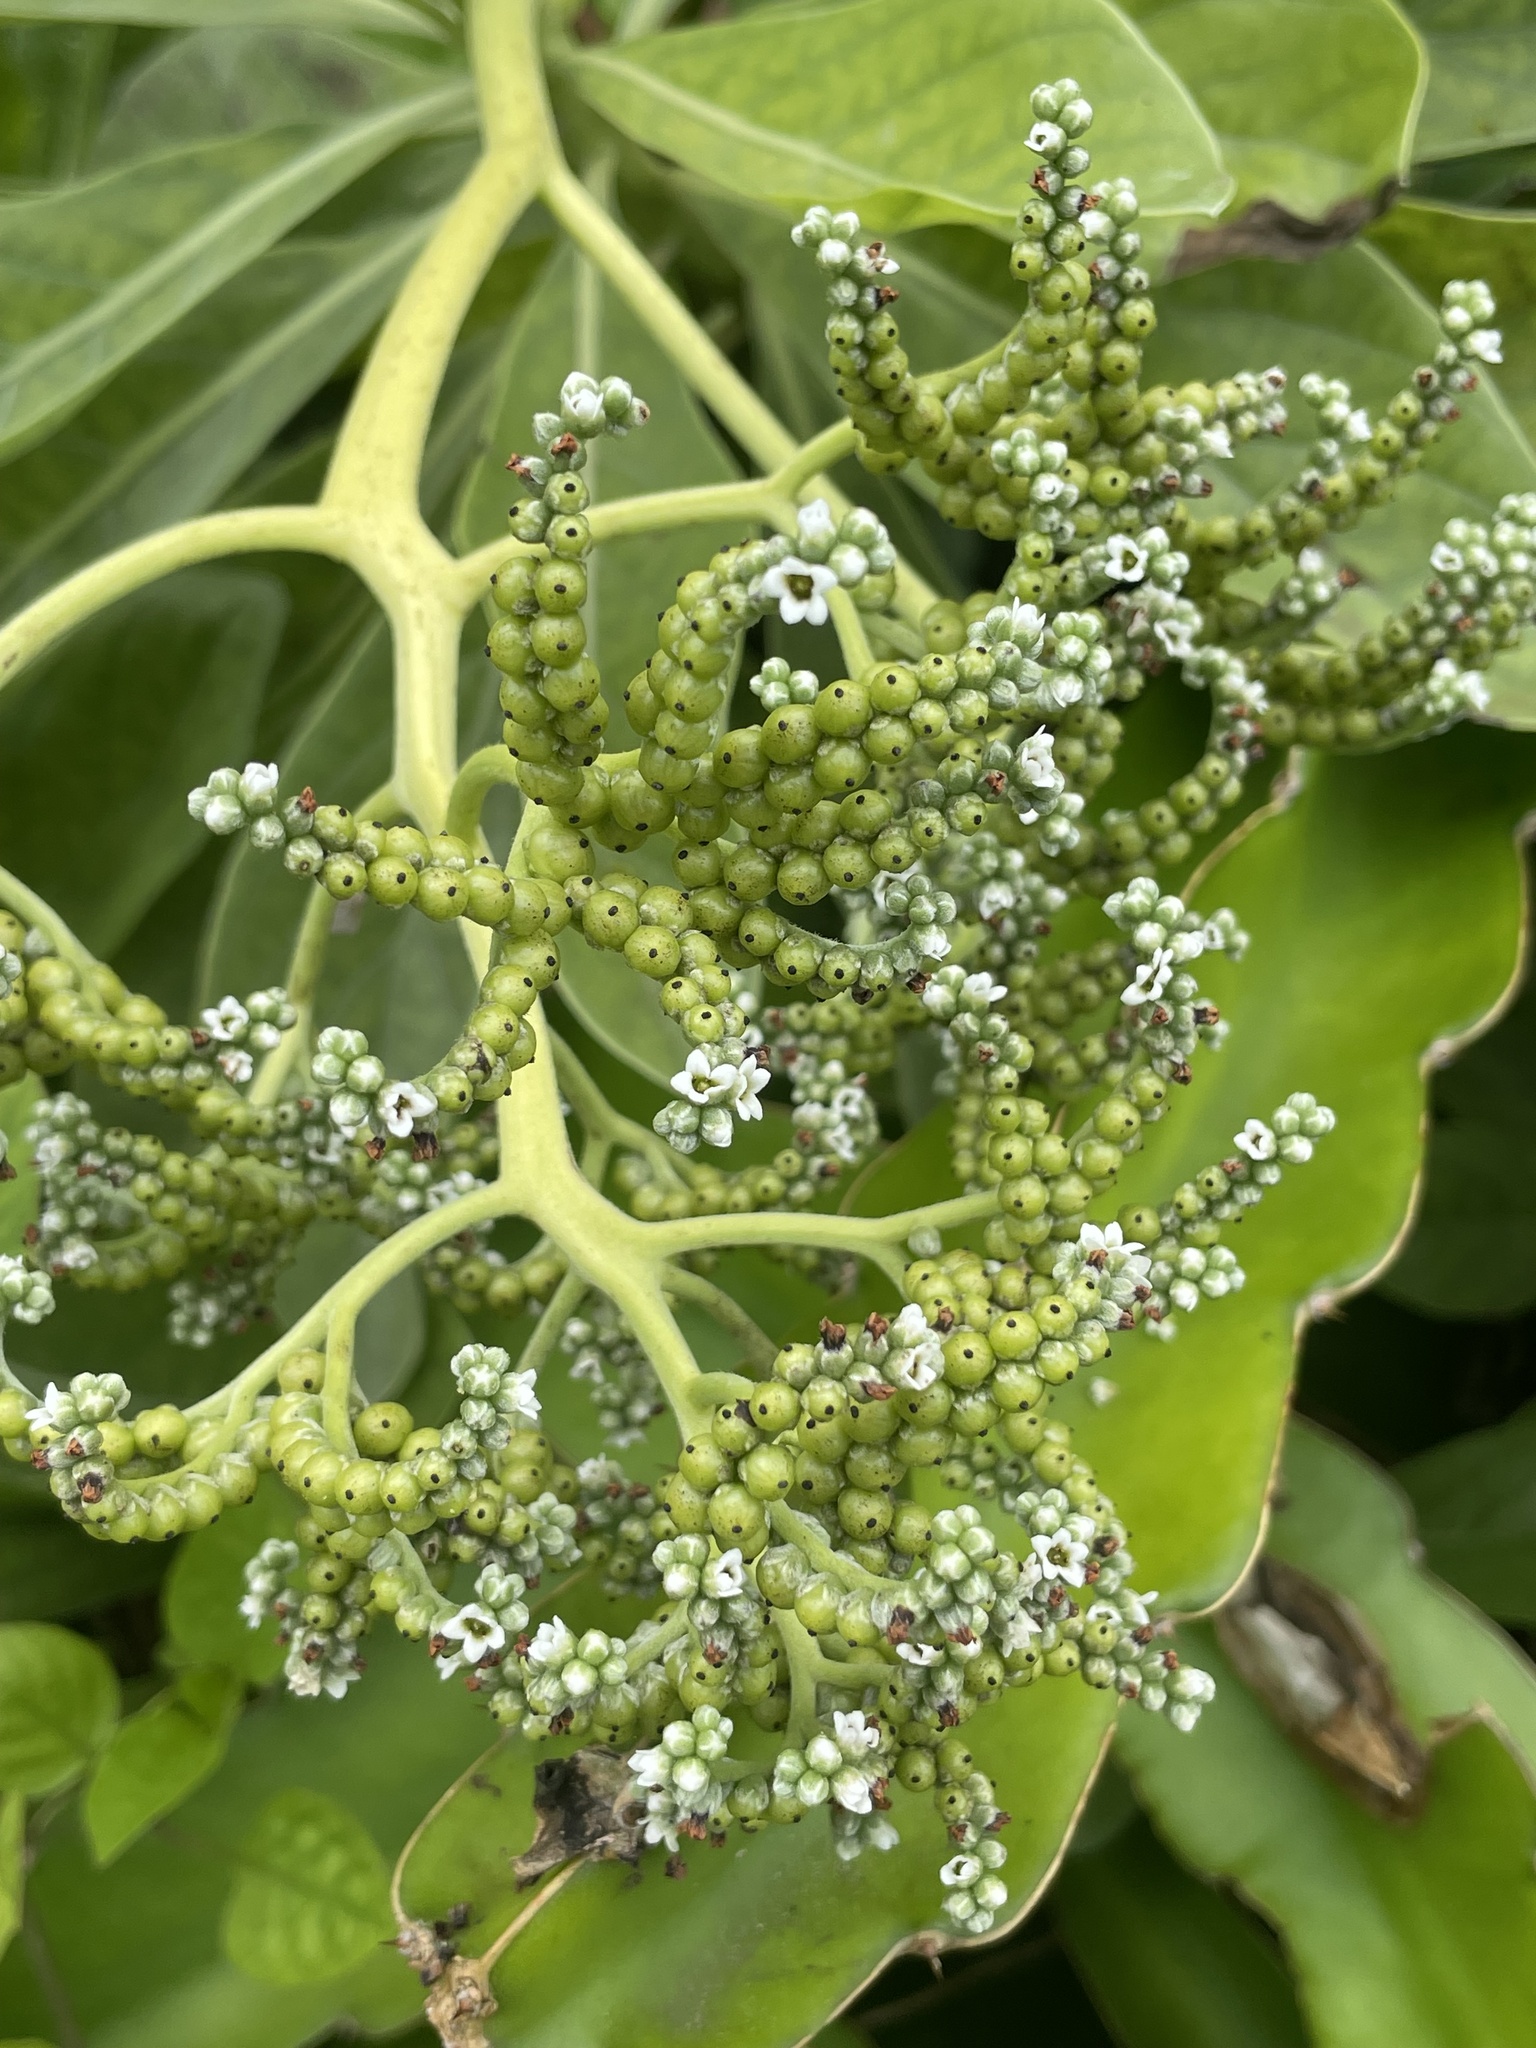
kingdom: Plantae
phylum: Tracheophyta
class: Magnoliopsida
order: Boraginales
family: Heliotropiaceae
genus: Heliotropium
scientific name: Heliotropium velutinum
